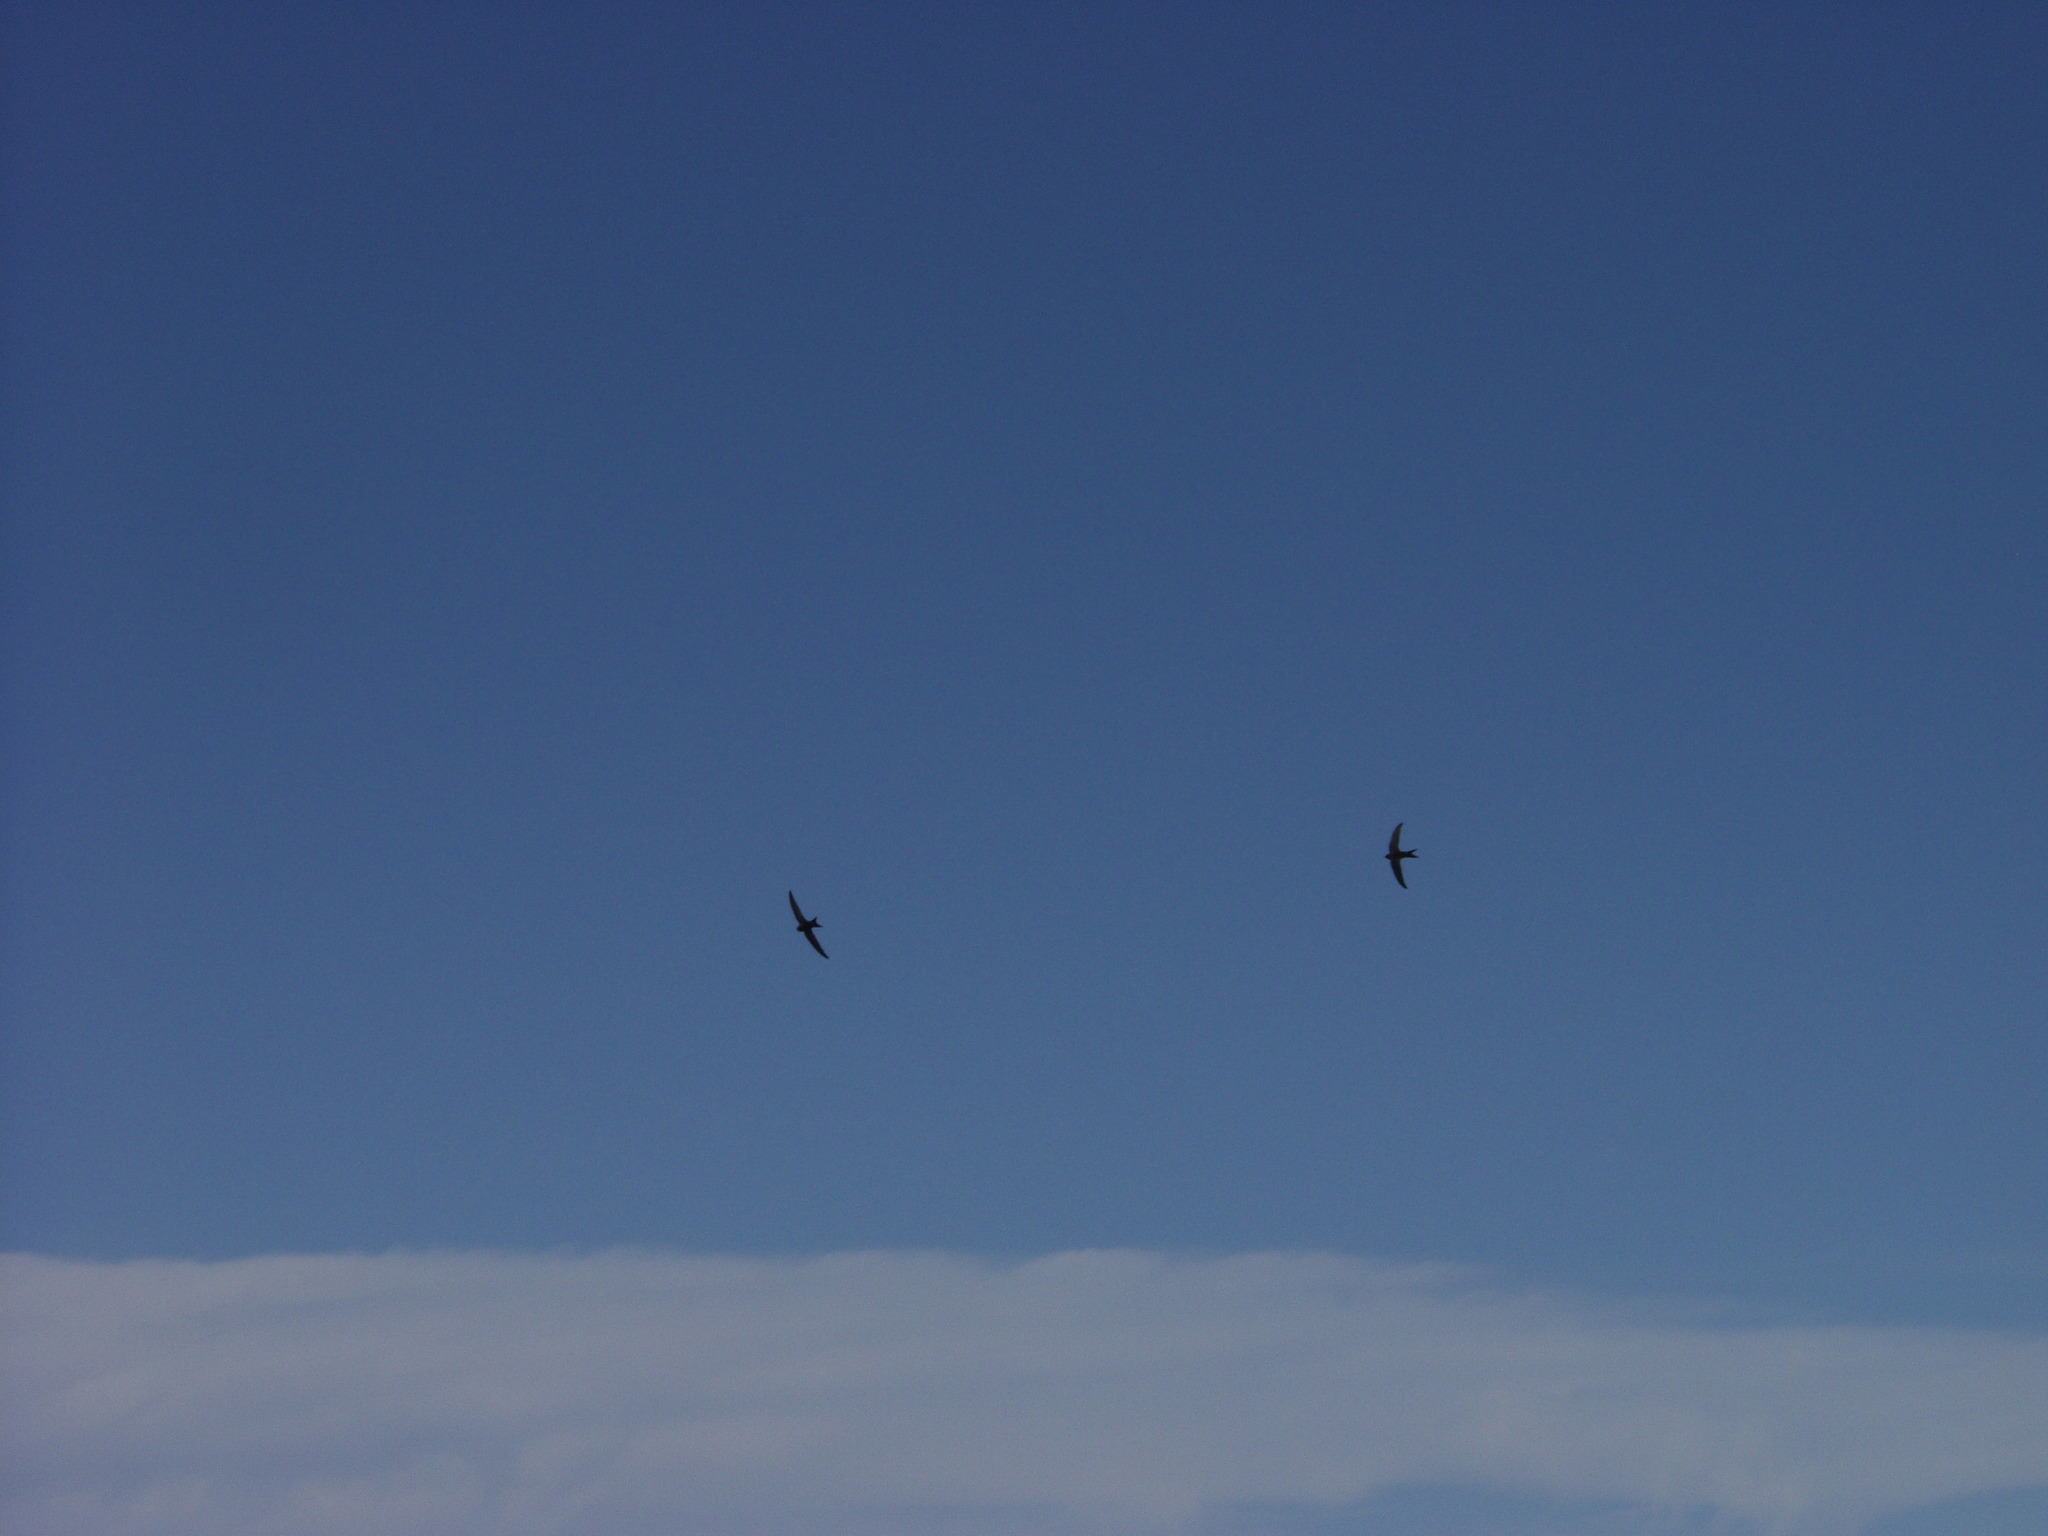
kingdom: Animalia
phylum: Chordata
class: Aves
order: Apodiformes
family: Apodidae
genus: Apus
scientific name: Apus unicolor
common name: Plain swift
